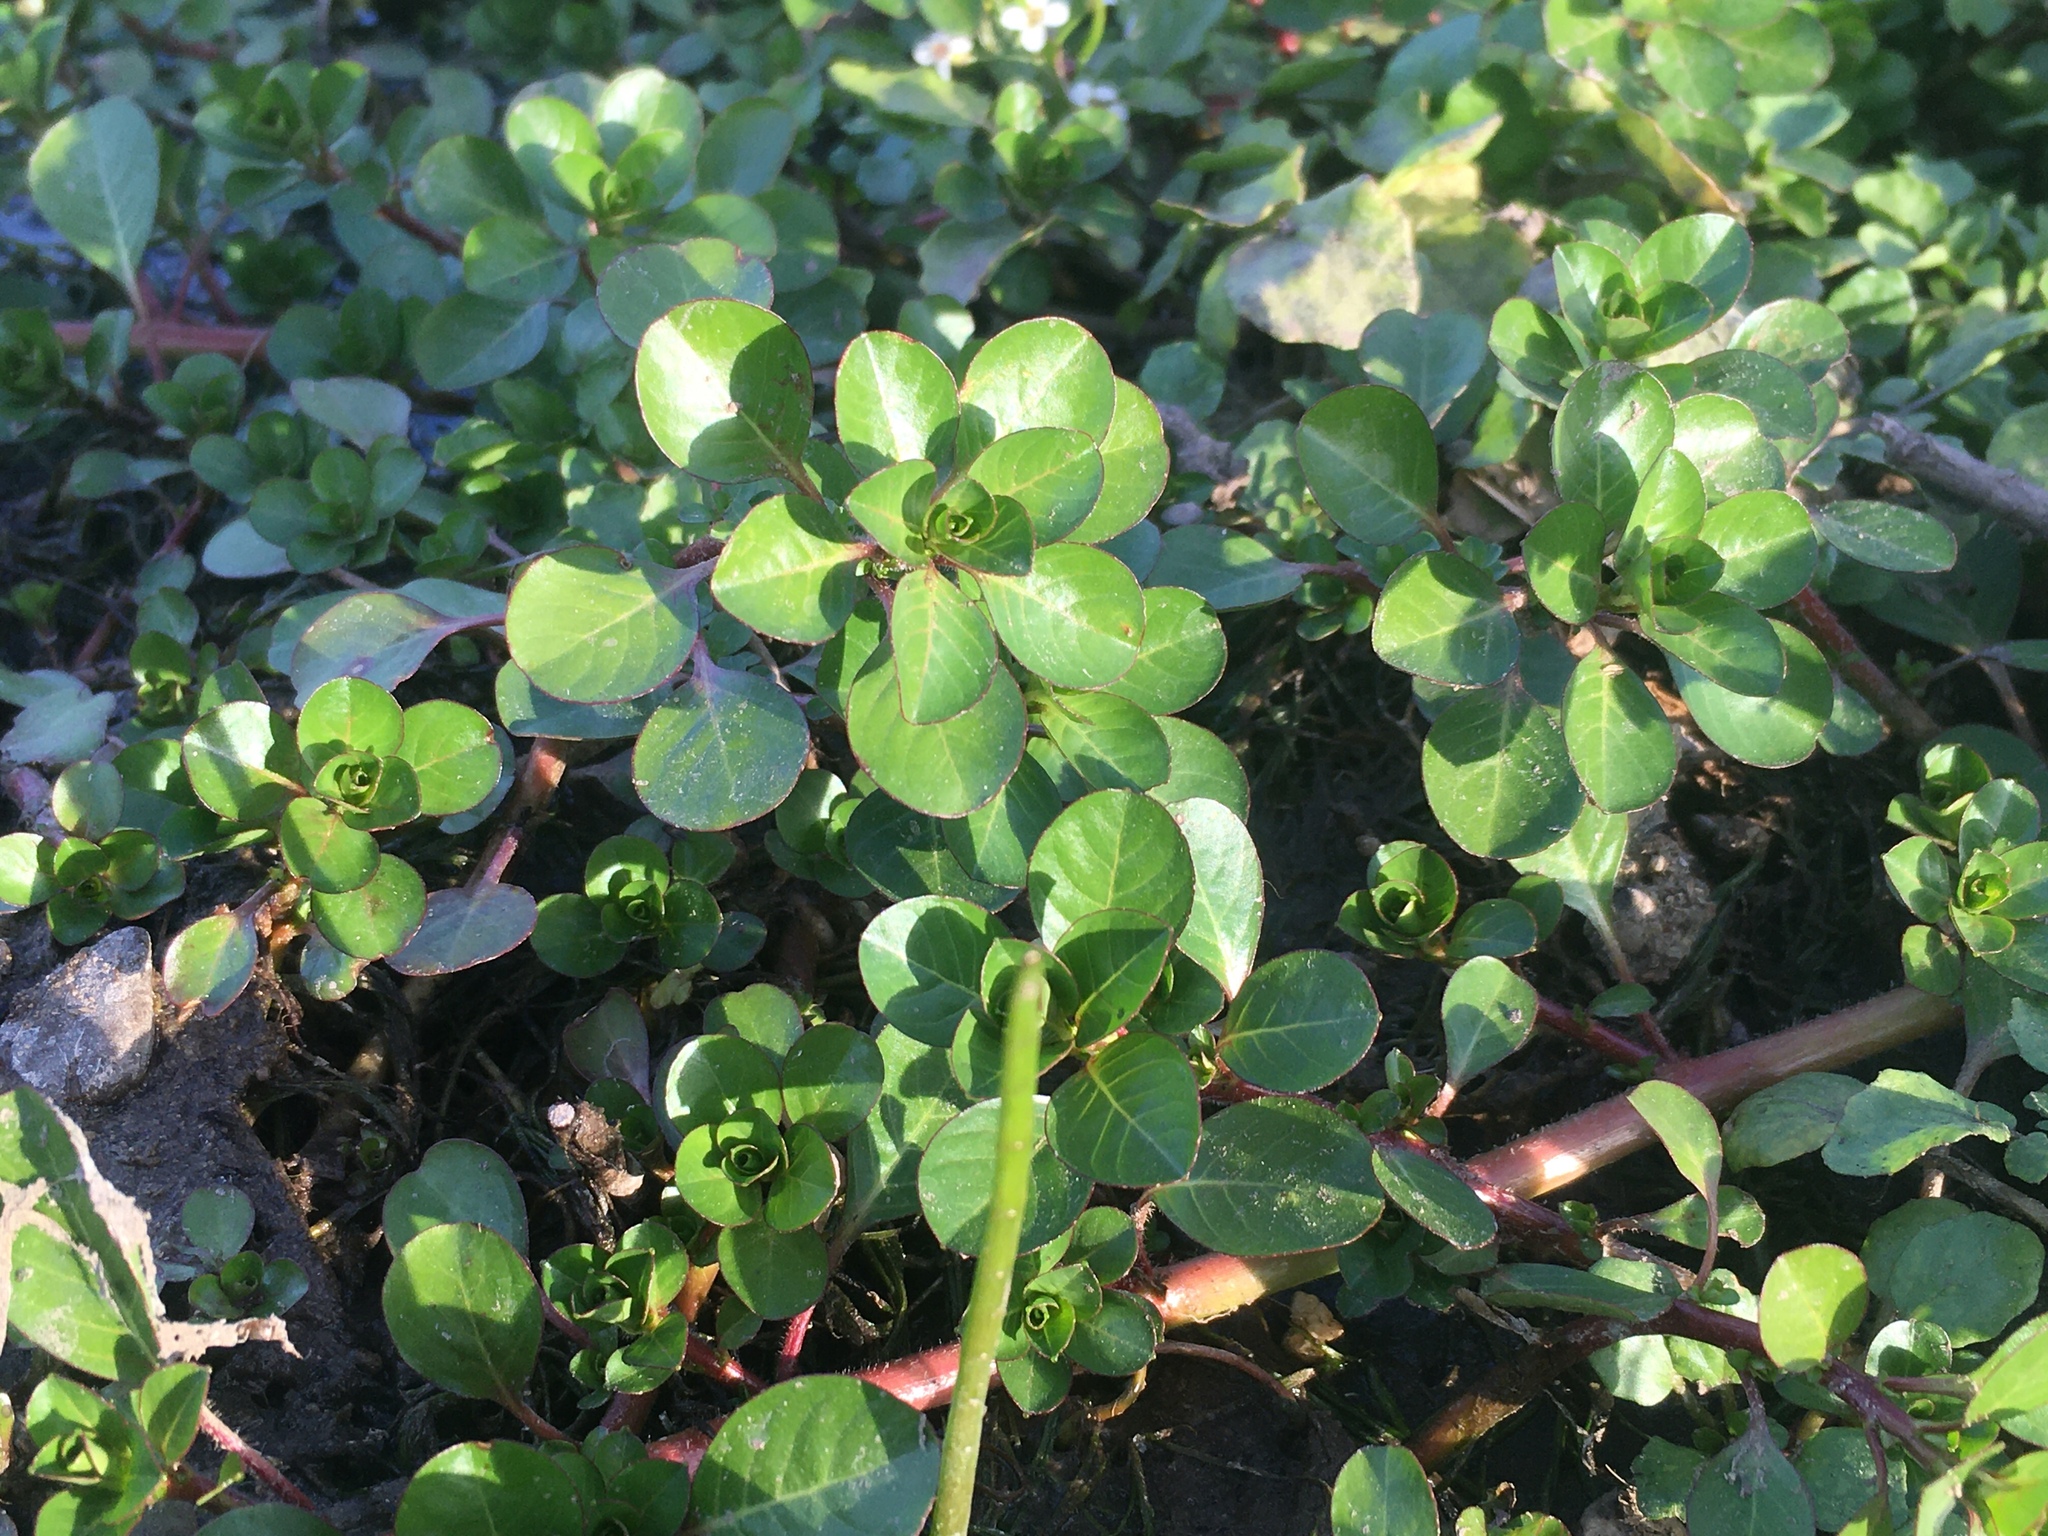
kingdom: Plantae
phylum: Tracheophyta
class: Magnoliopsida
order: Myrtales
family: Onagraceae
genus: Ludwigia
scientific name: Ludwigia peploides
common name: Floating primrose-willow
